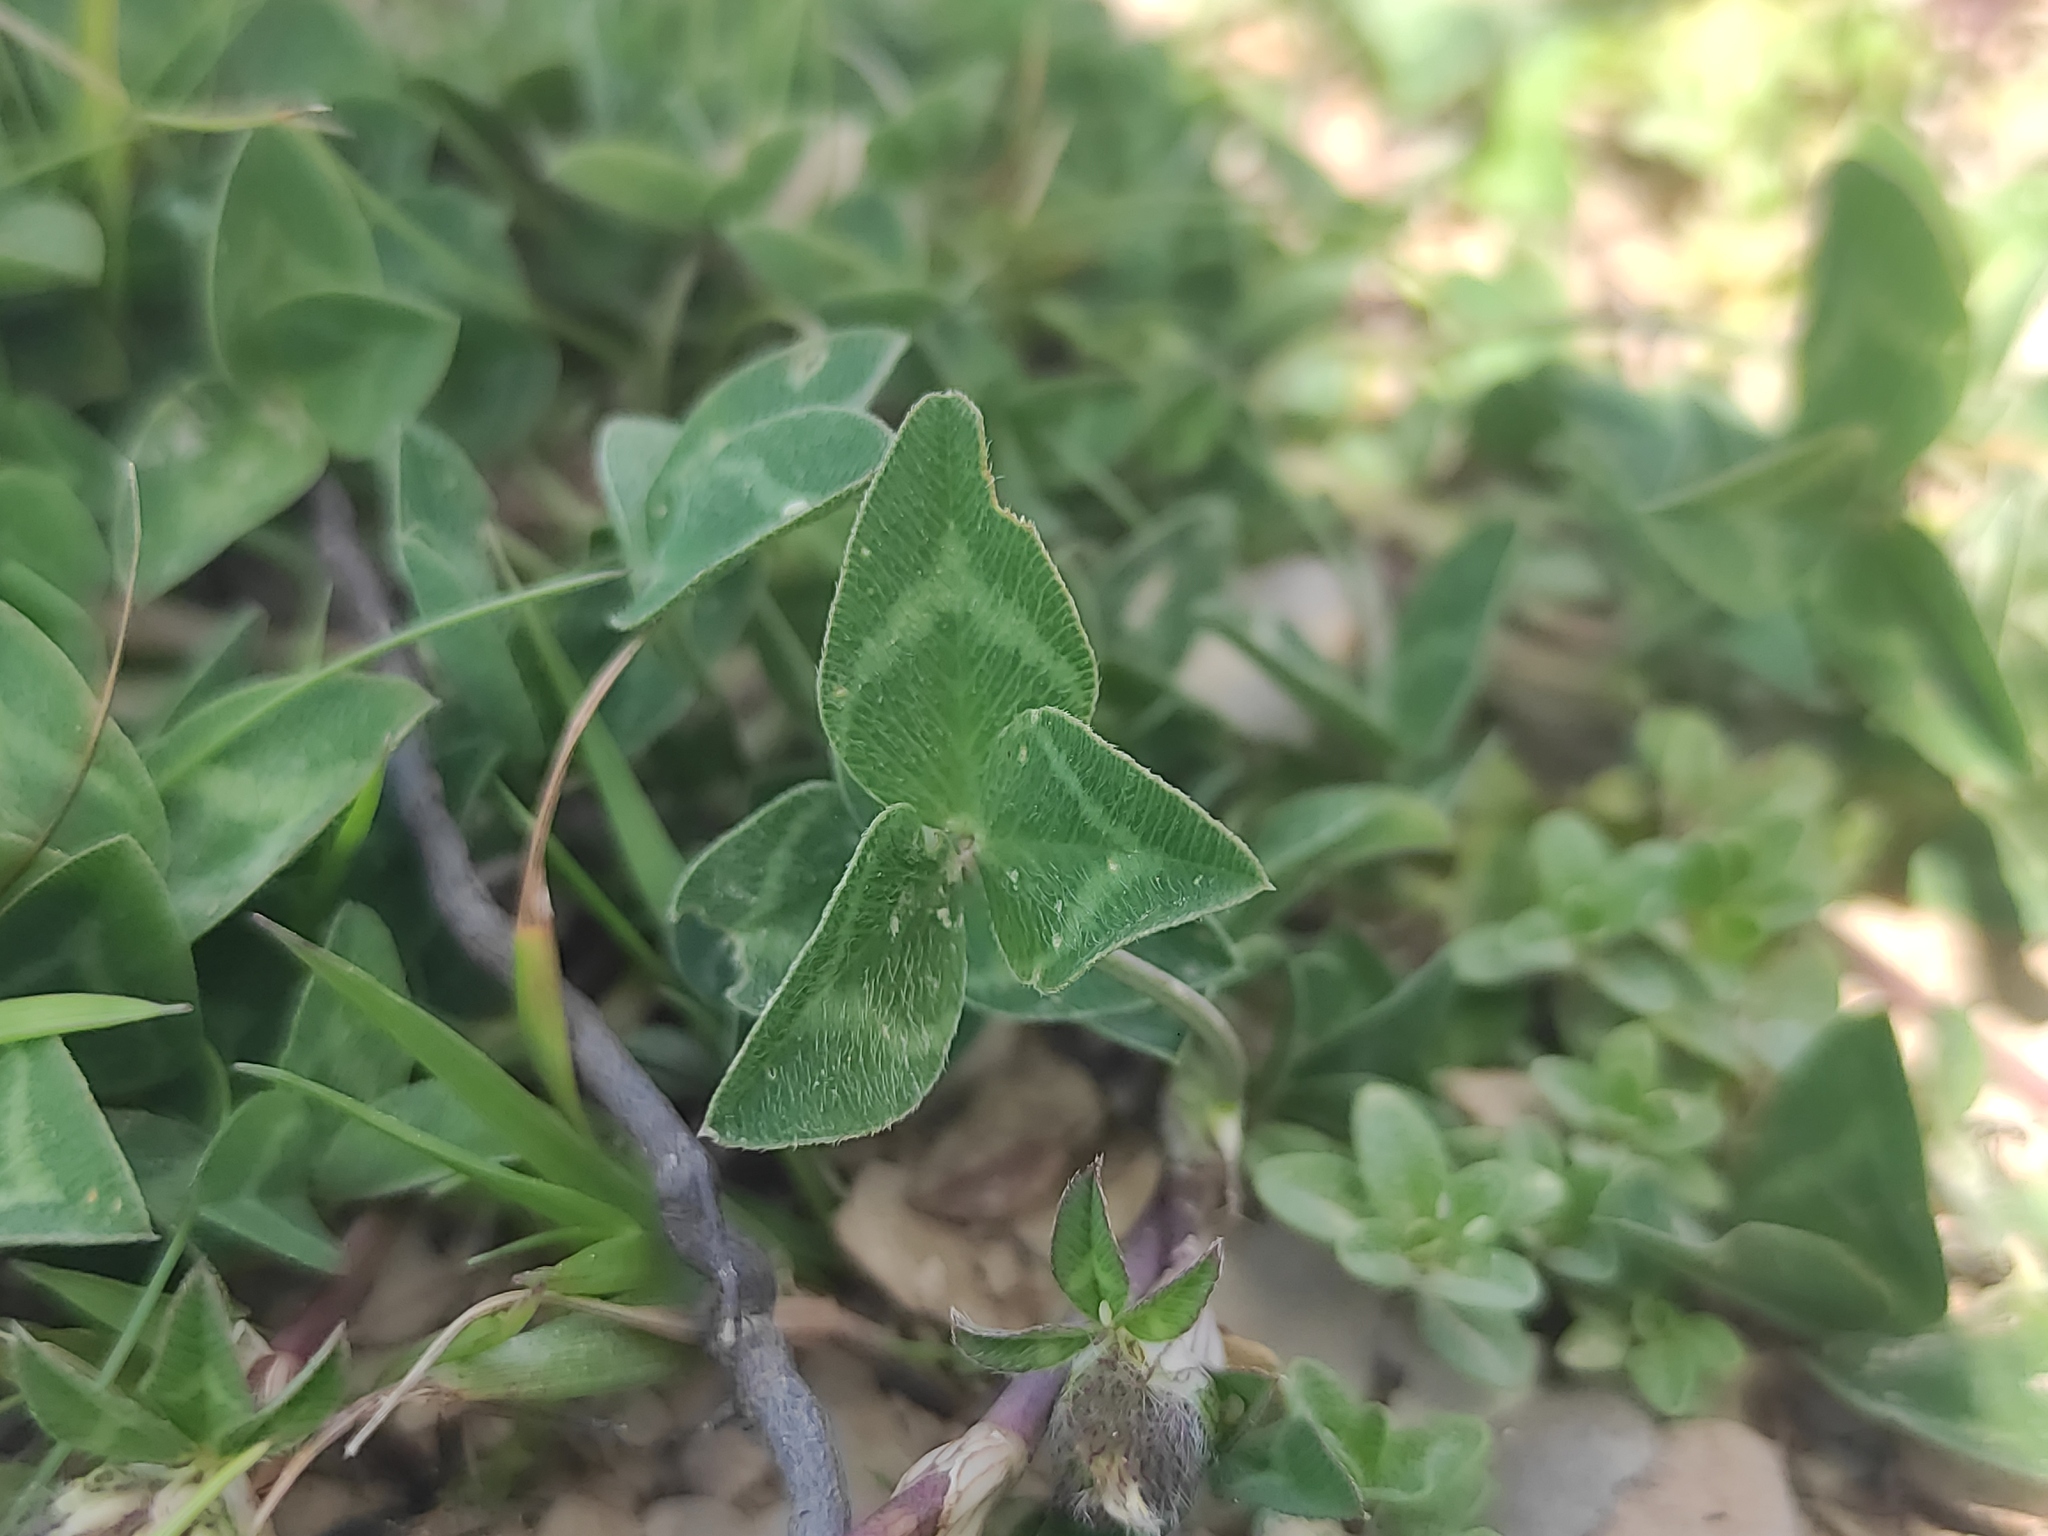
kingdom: Plantae
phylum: Tracheophyta
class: Magnoliopsida
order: Fabales
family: Fabaceae
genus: Trifolium
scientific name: Trifolium pratense
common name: Red clover
